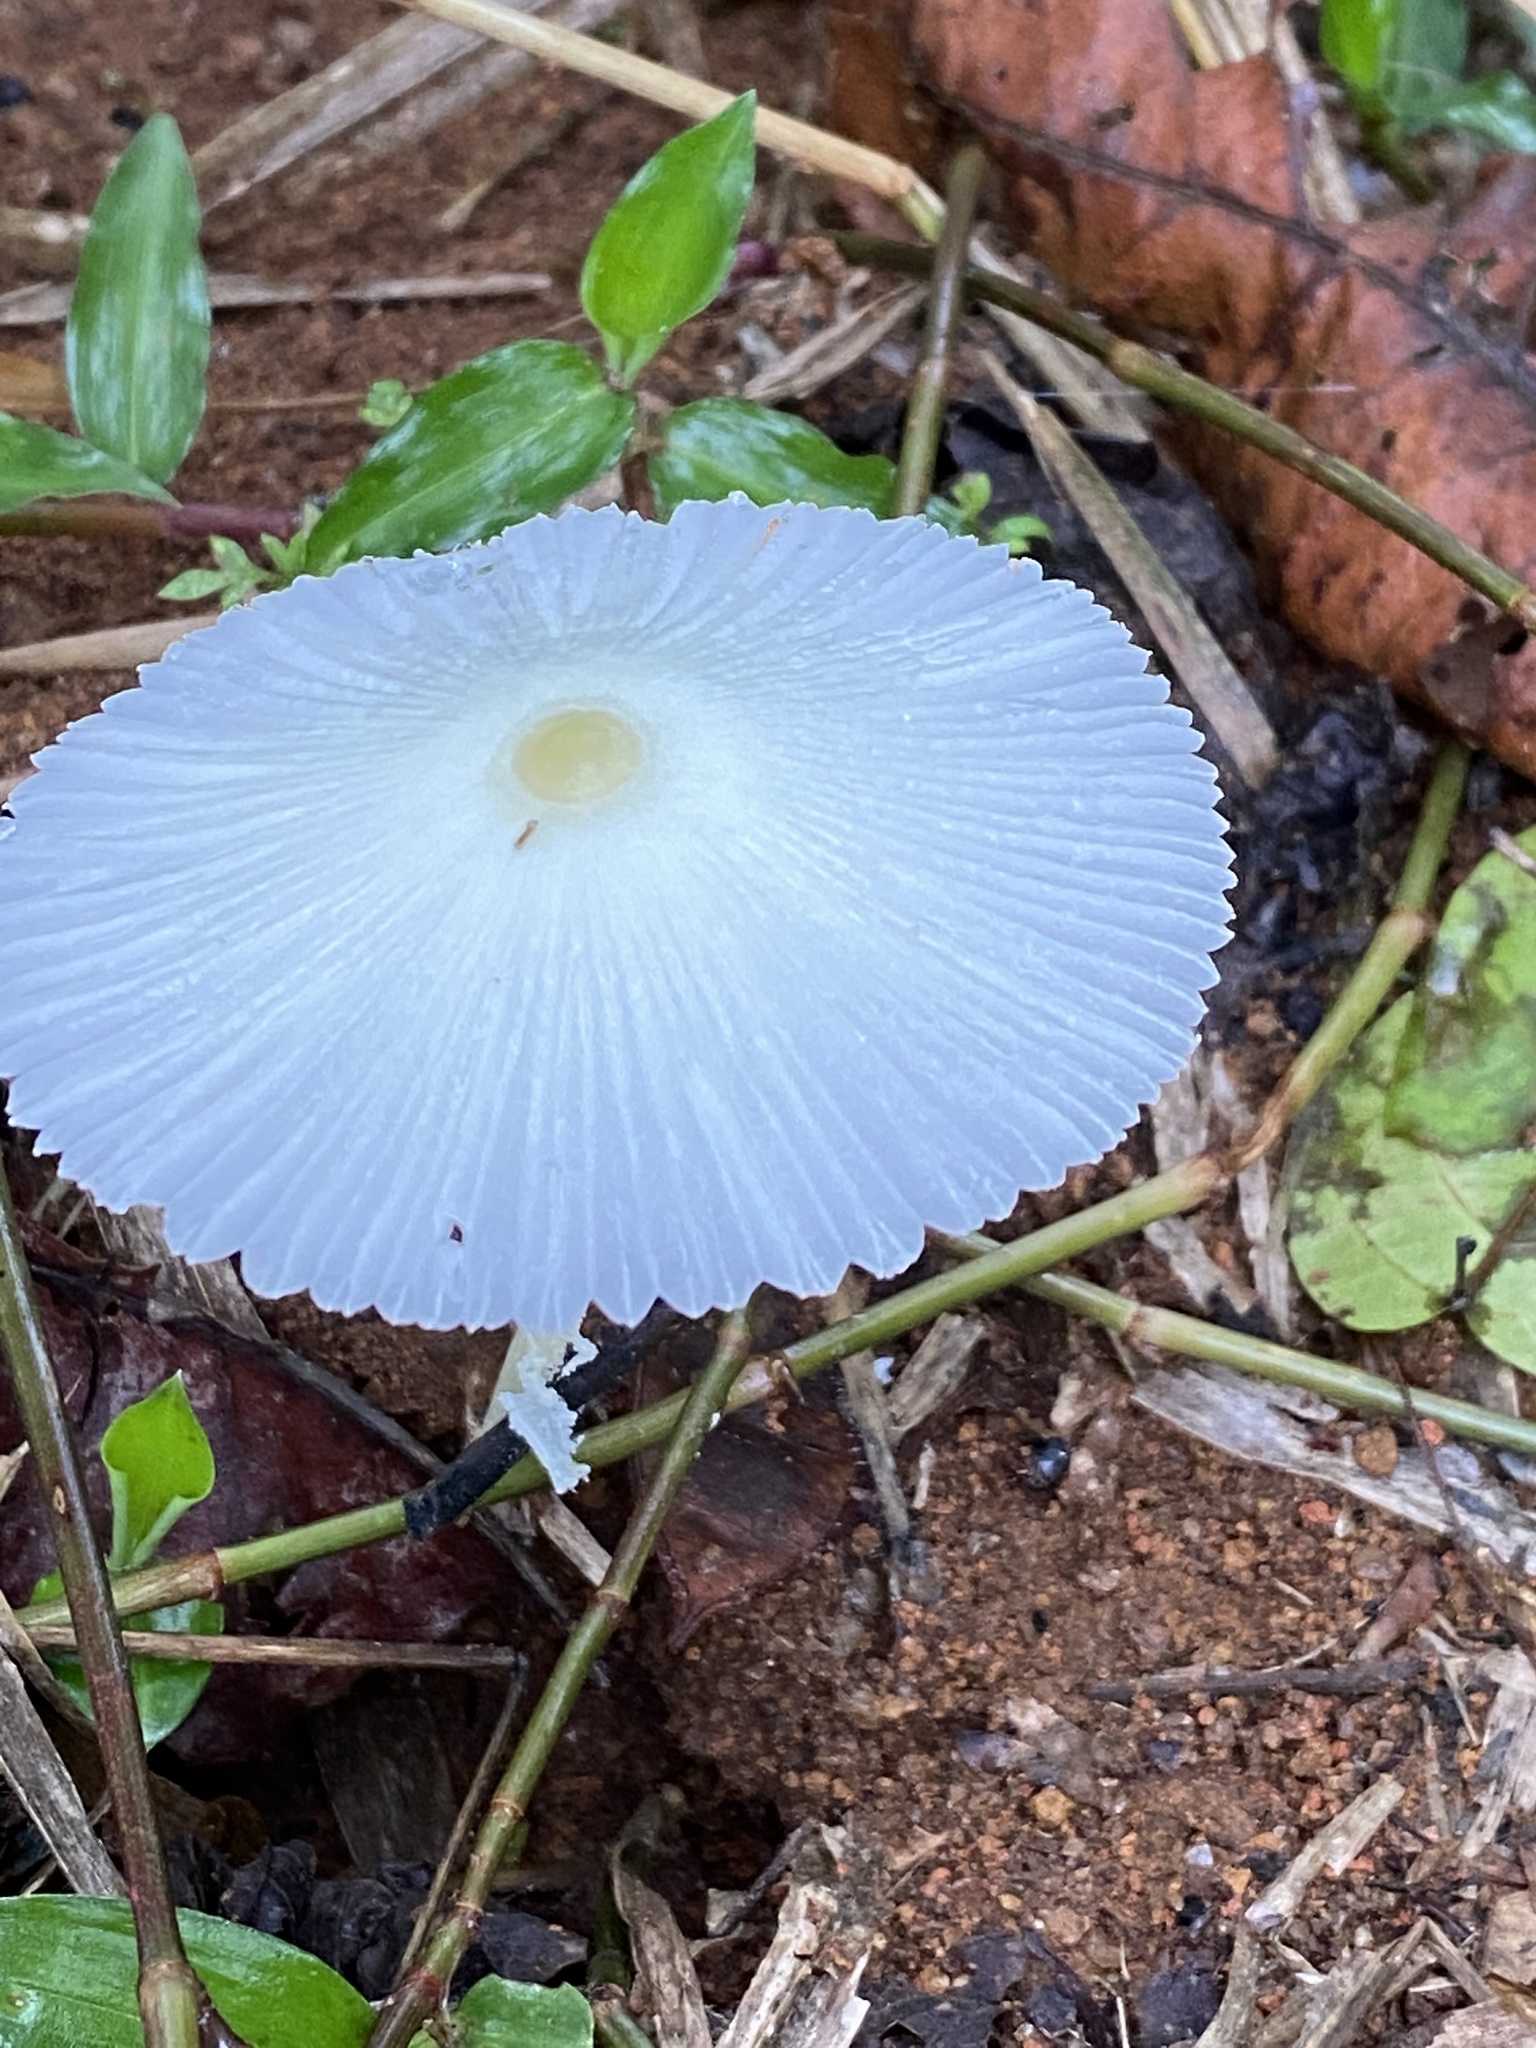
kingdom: Fungi
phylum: Basidiomycota
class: Agaricomycetes
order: Agaricales
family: Agaricaceae
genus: Leucocoprinus
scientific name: Leucocoprinus fragilissimus
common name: Fragile dapperling
